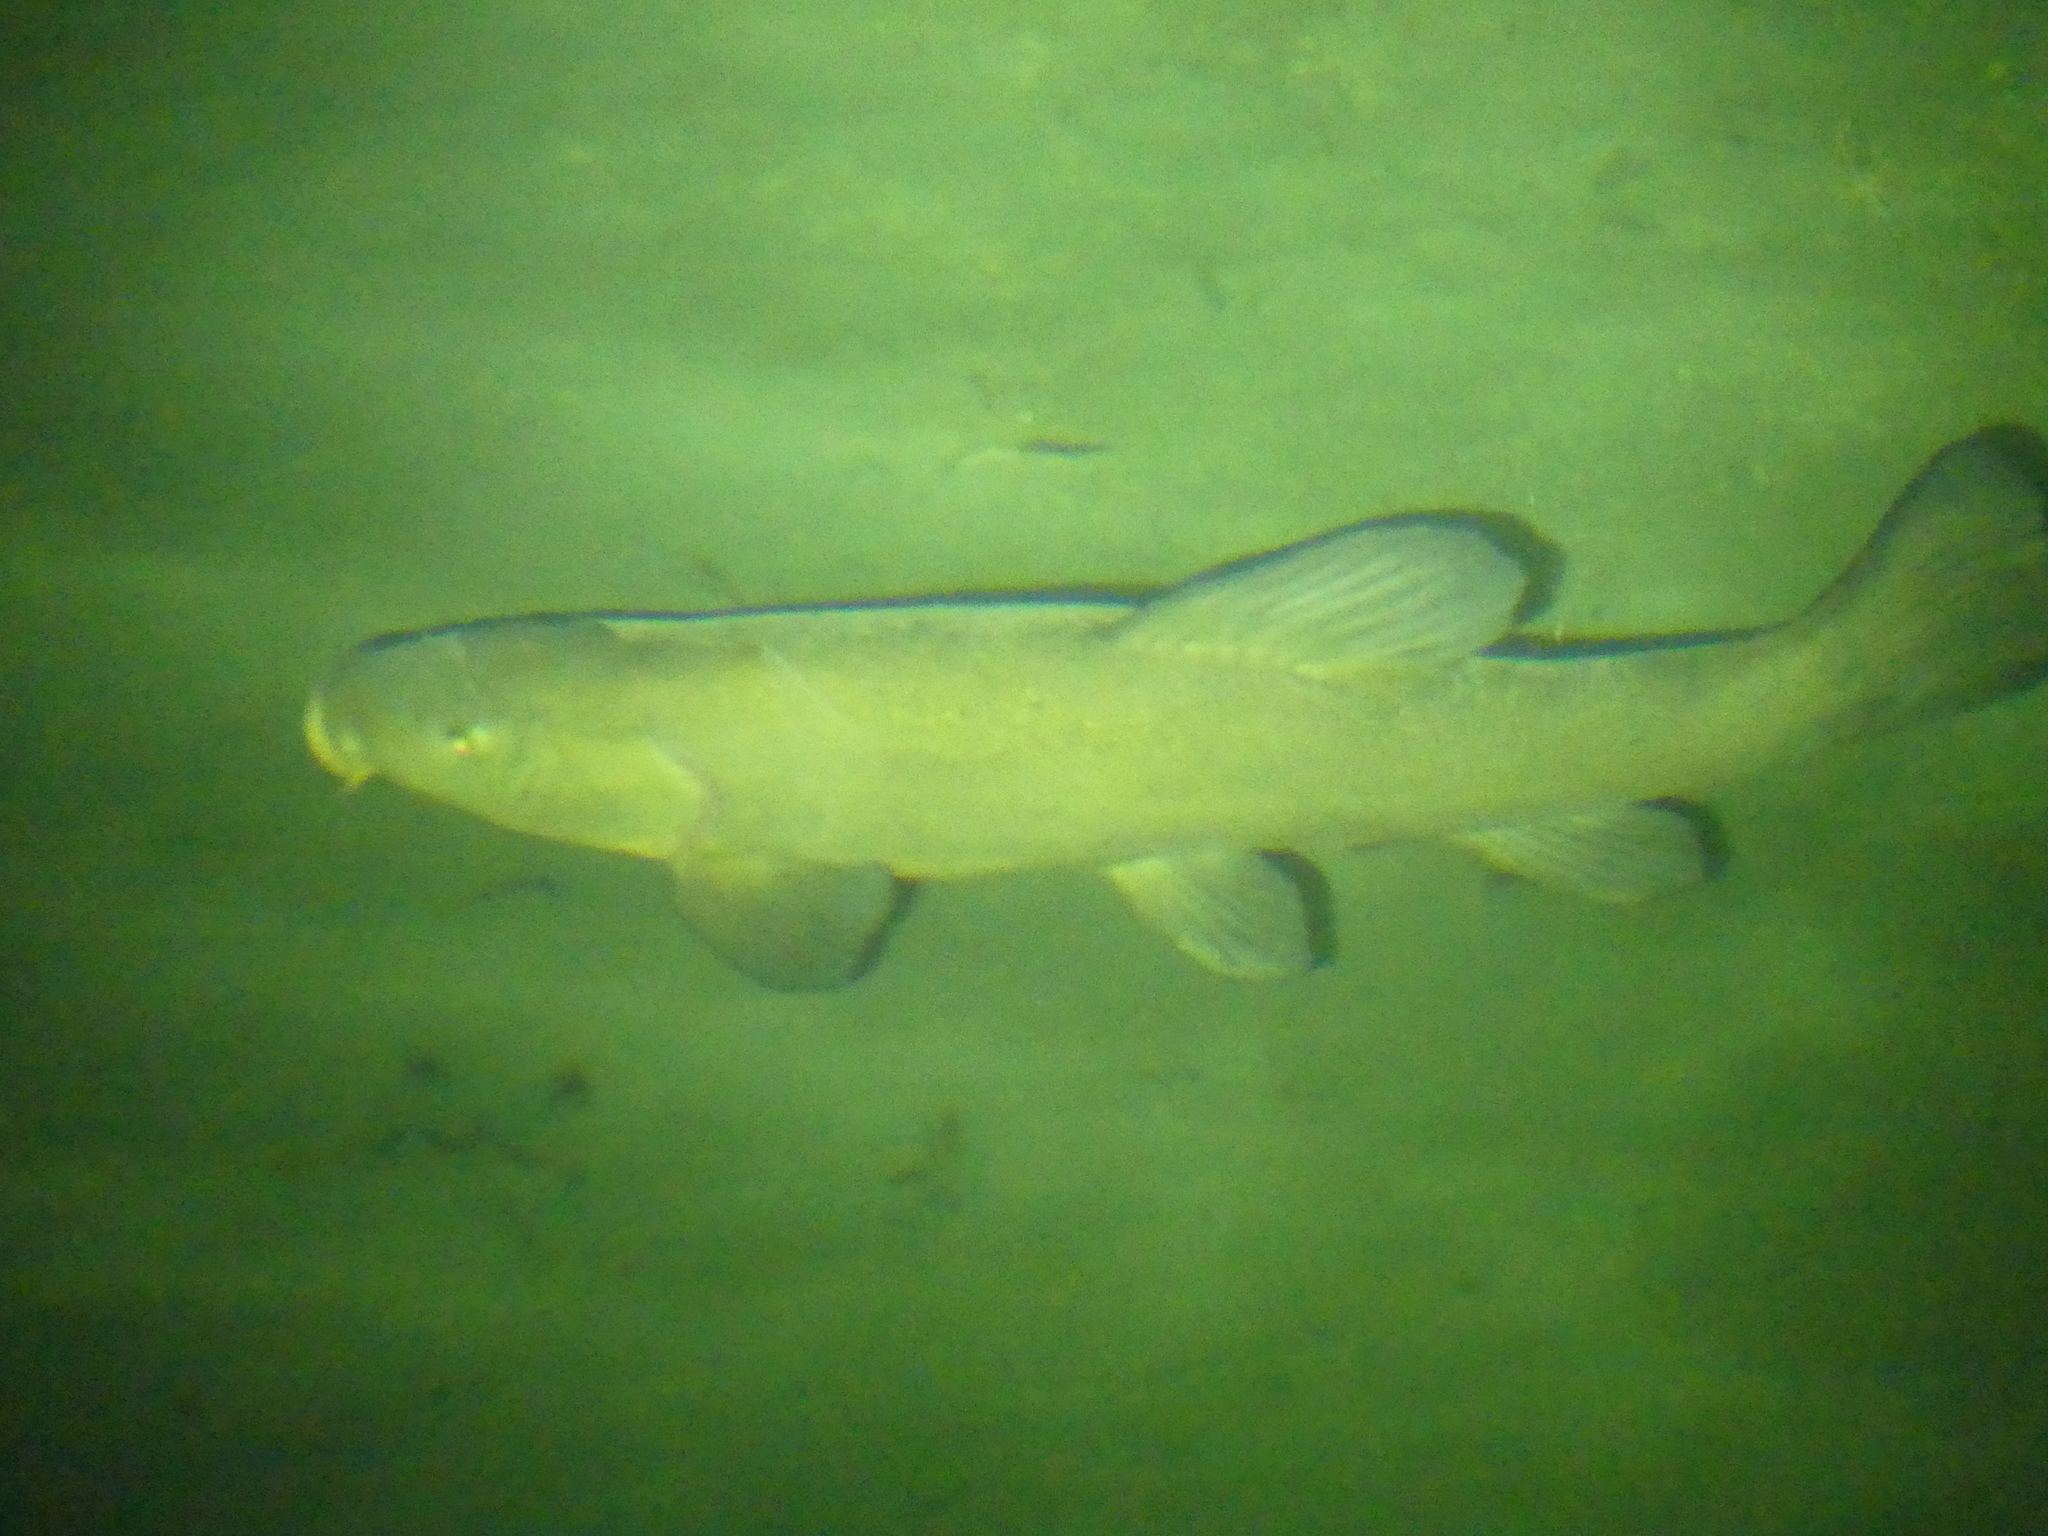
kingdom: Animalia
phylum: Chordata
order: Cypriniformes
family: Cyprinidae
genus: Tinca
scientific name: Tinca tinca
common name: Tench
